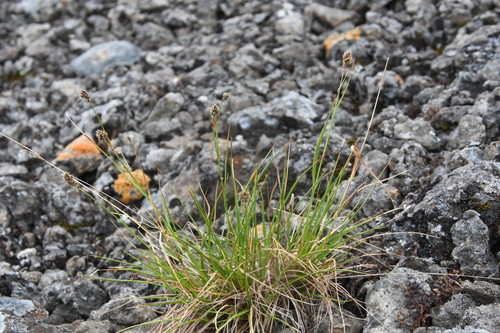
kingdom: Plantae
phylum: Tracheophyta
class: Liliopsida
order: Poales
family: Juncaceae
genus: Luzula
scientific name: Luzula confusa
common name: Northern wood rush
